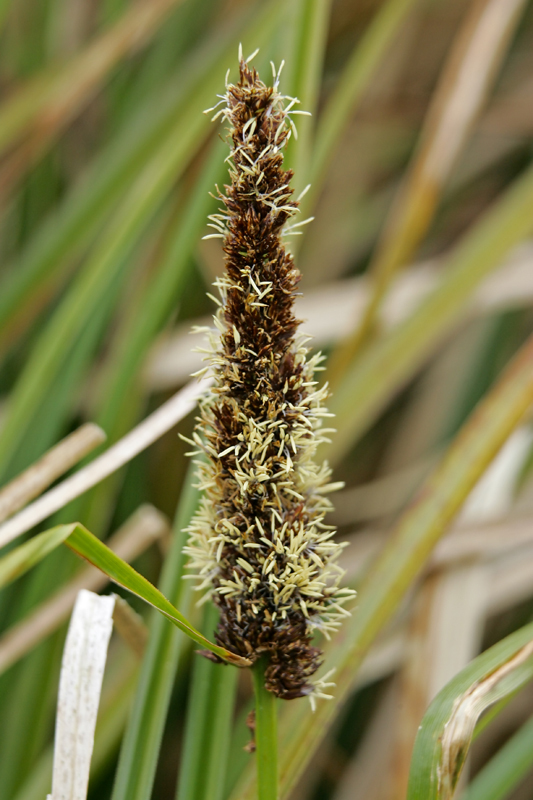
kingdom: Plantae
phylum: Tracheophyta
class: Liliopsida
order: Poales
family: Cyperaceae
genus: Carex
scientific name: Carex appressa
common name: Tussock sedge
